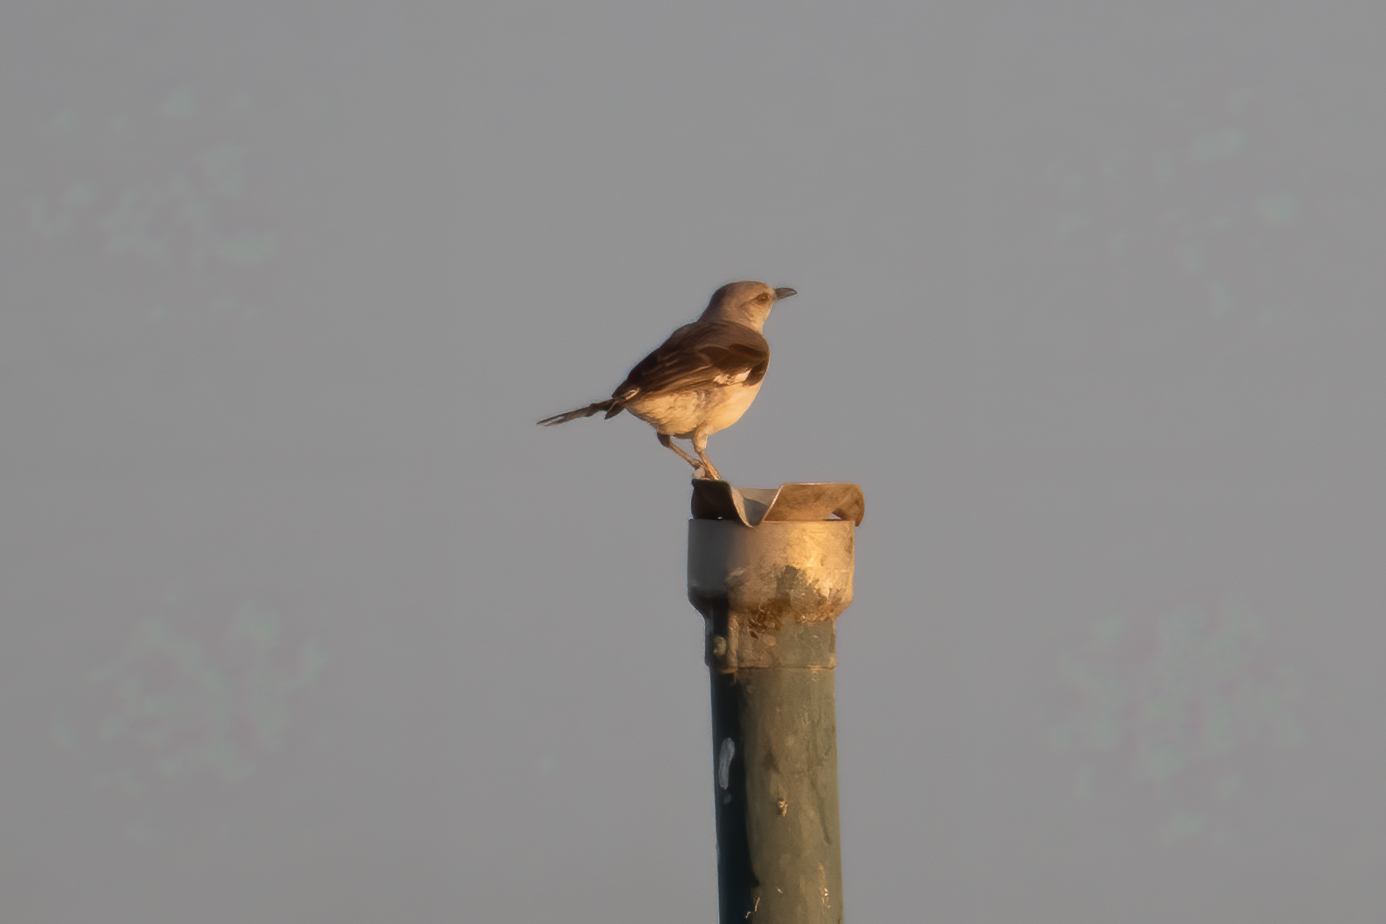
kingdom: Animalia
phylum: Chordata
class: Aves
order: Passeriformes
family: Mimidae
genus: Mimus
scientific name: Mimus polyglottos
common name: Northern mockingbird
